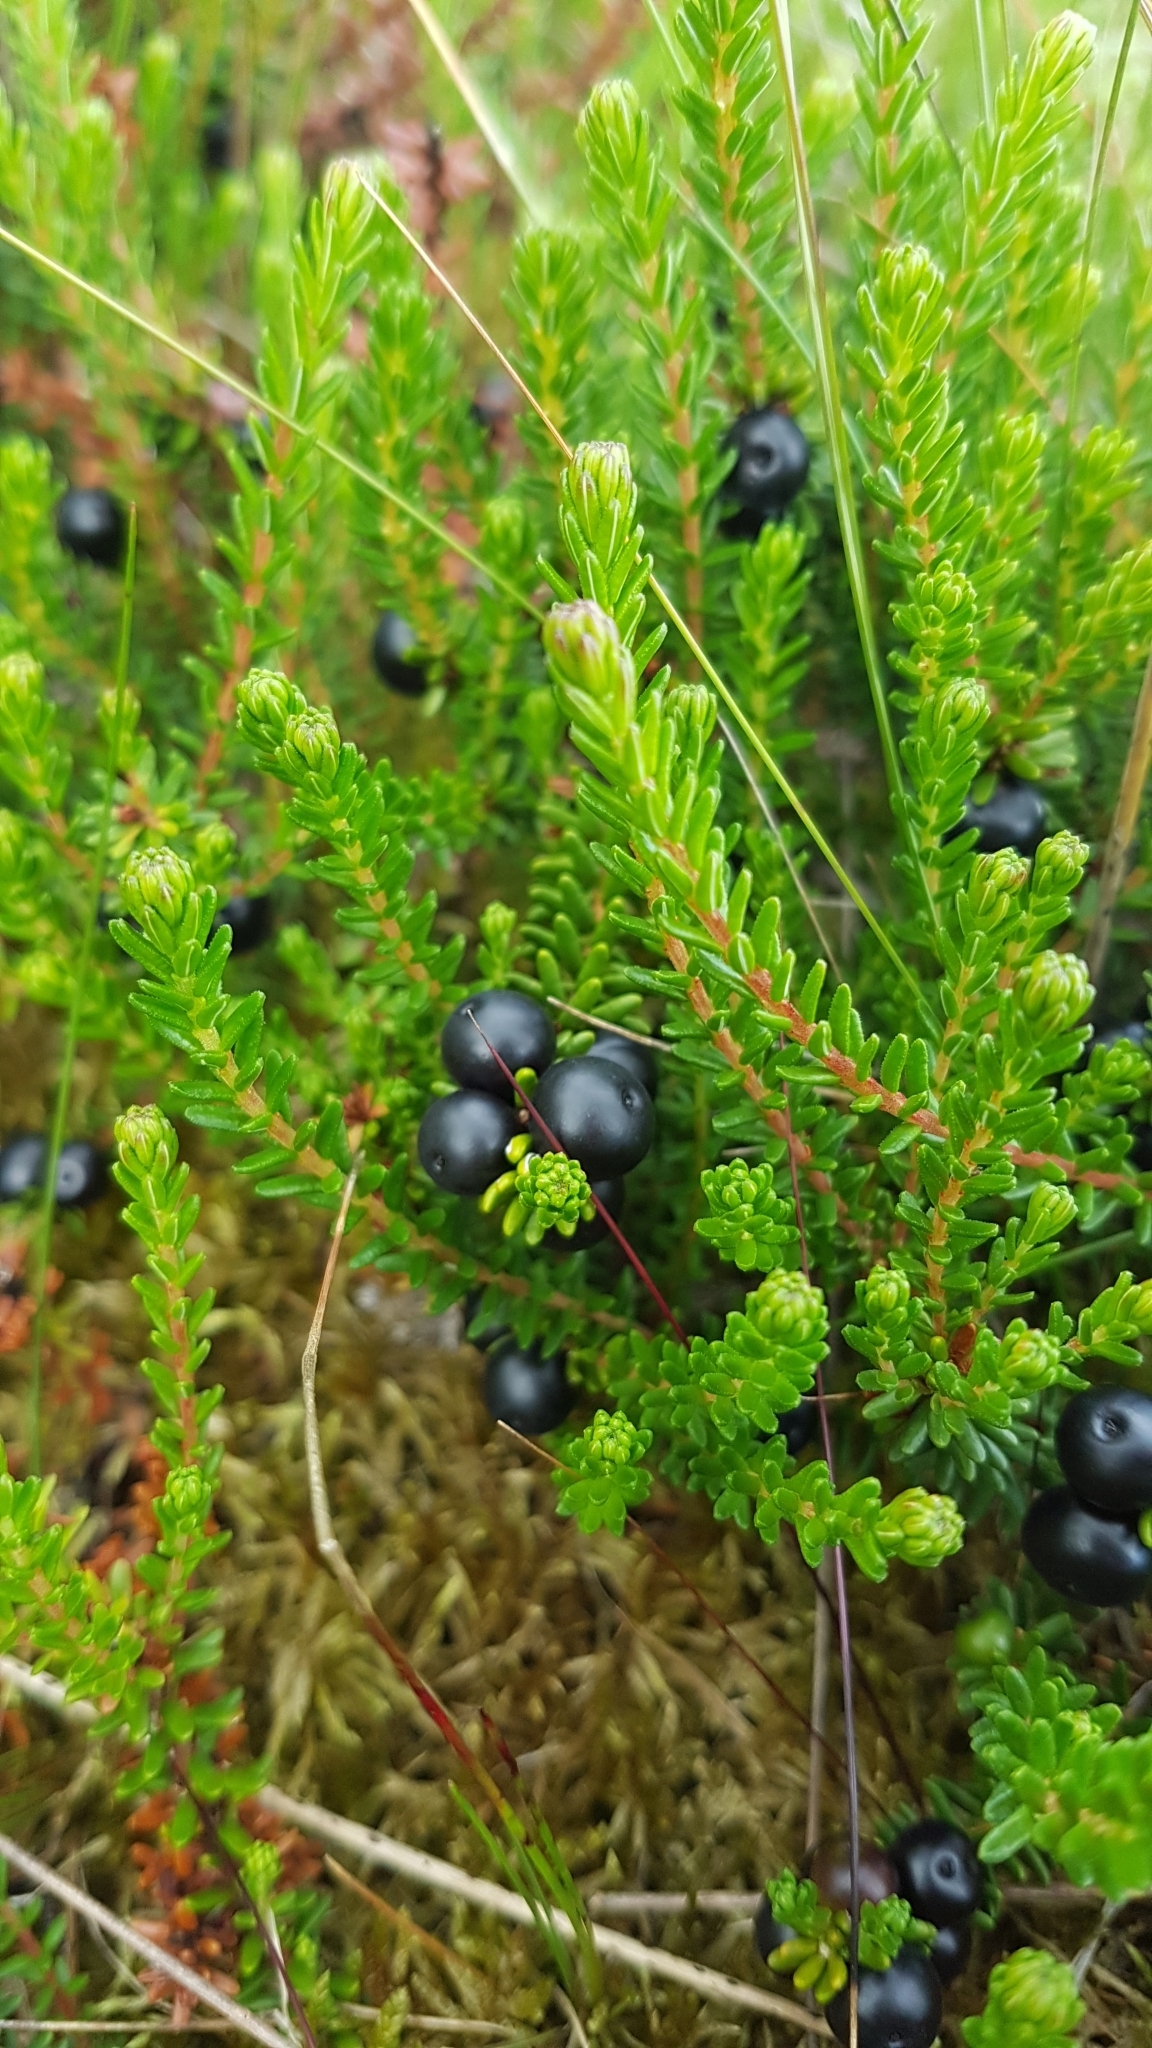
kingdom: Plantae
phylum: Tracheophyta
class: Magnoliopsida
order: Ericales
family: Ericaceae
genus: Empetrum
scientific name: Empetrum nigrum
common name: Black crowberry
